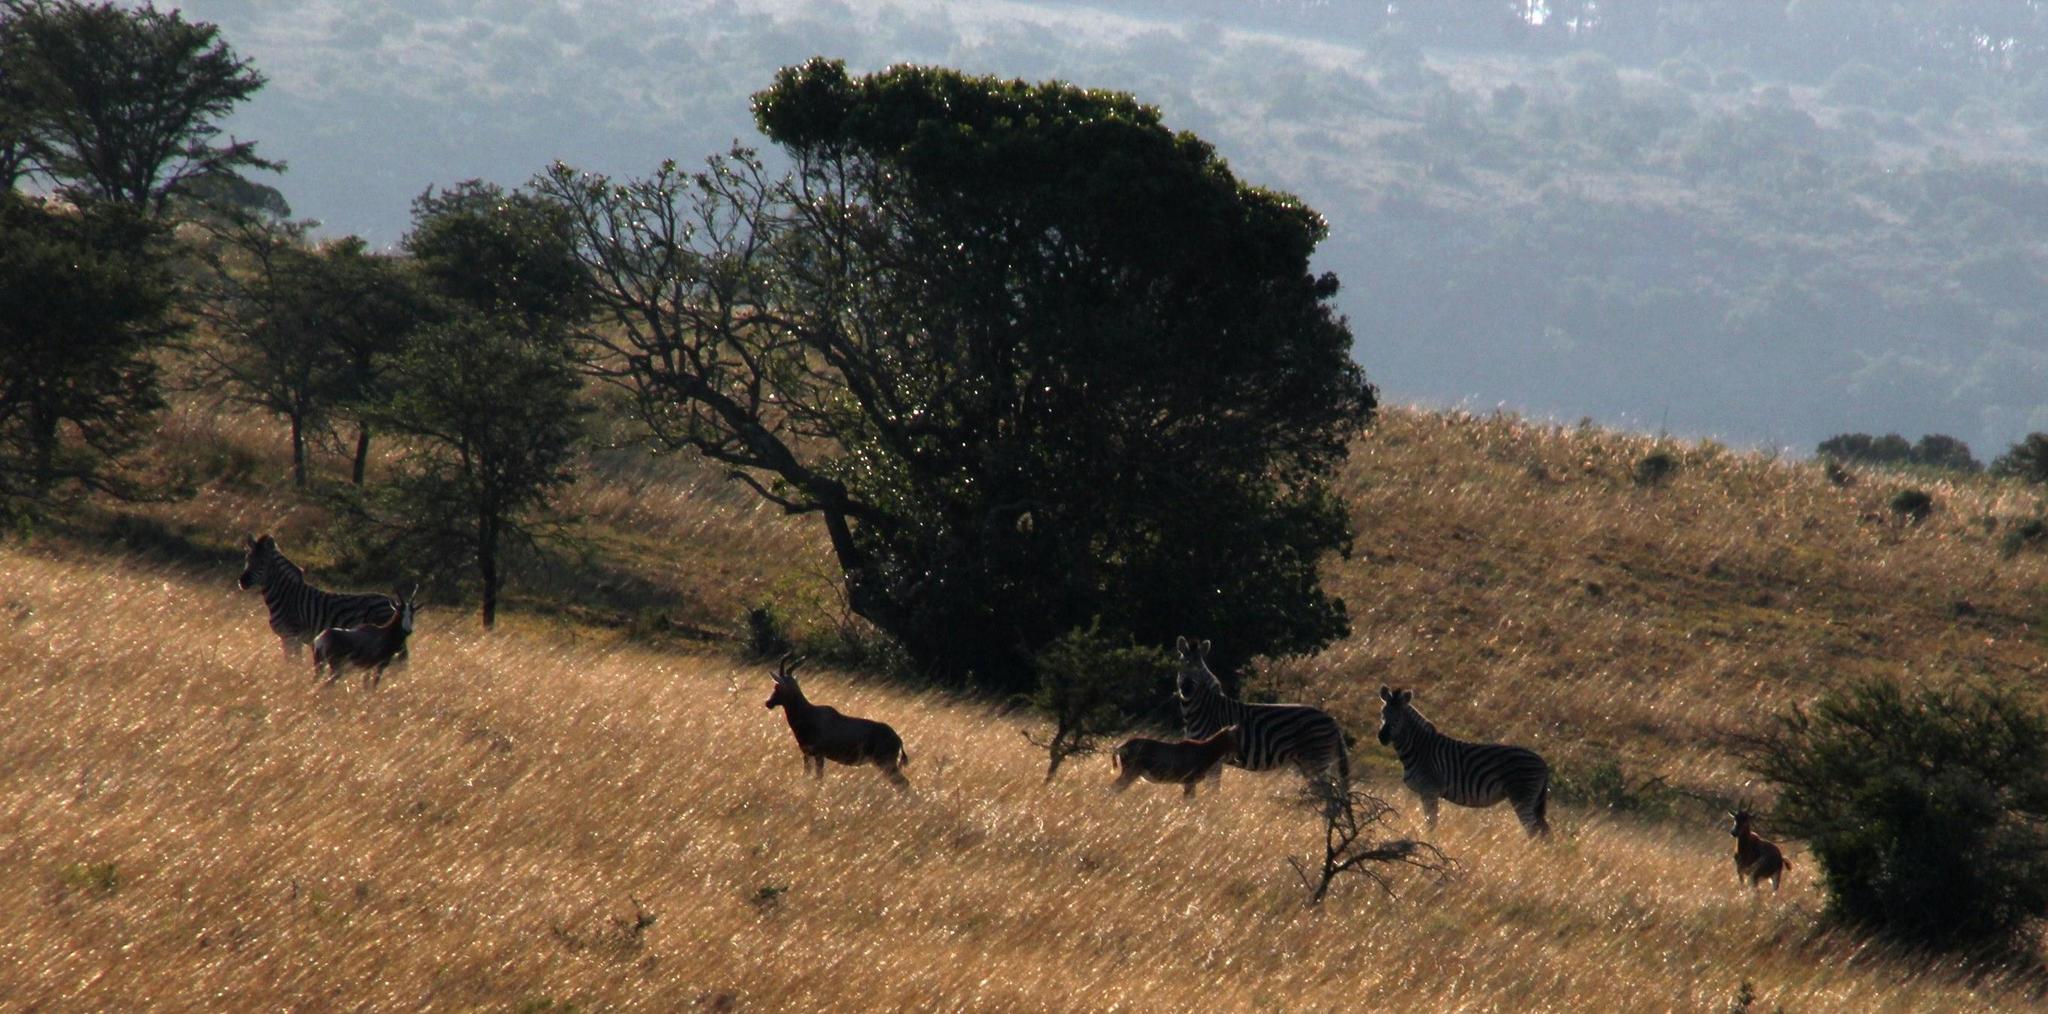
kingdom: Animalia
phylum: Chordata
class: Mammalia
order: Artiodactyla
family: Bovidae
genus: Damaliscus
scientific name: Damaliscus pygargus
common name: Bontebok
